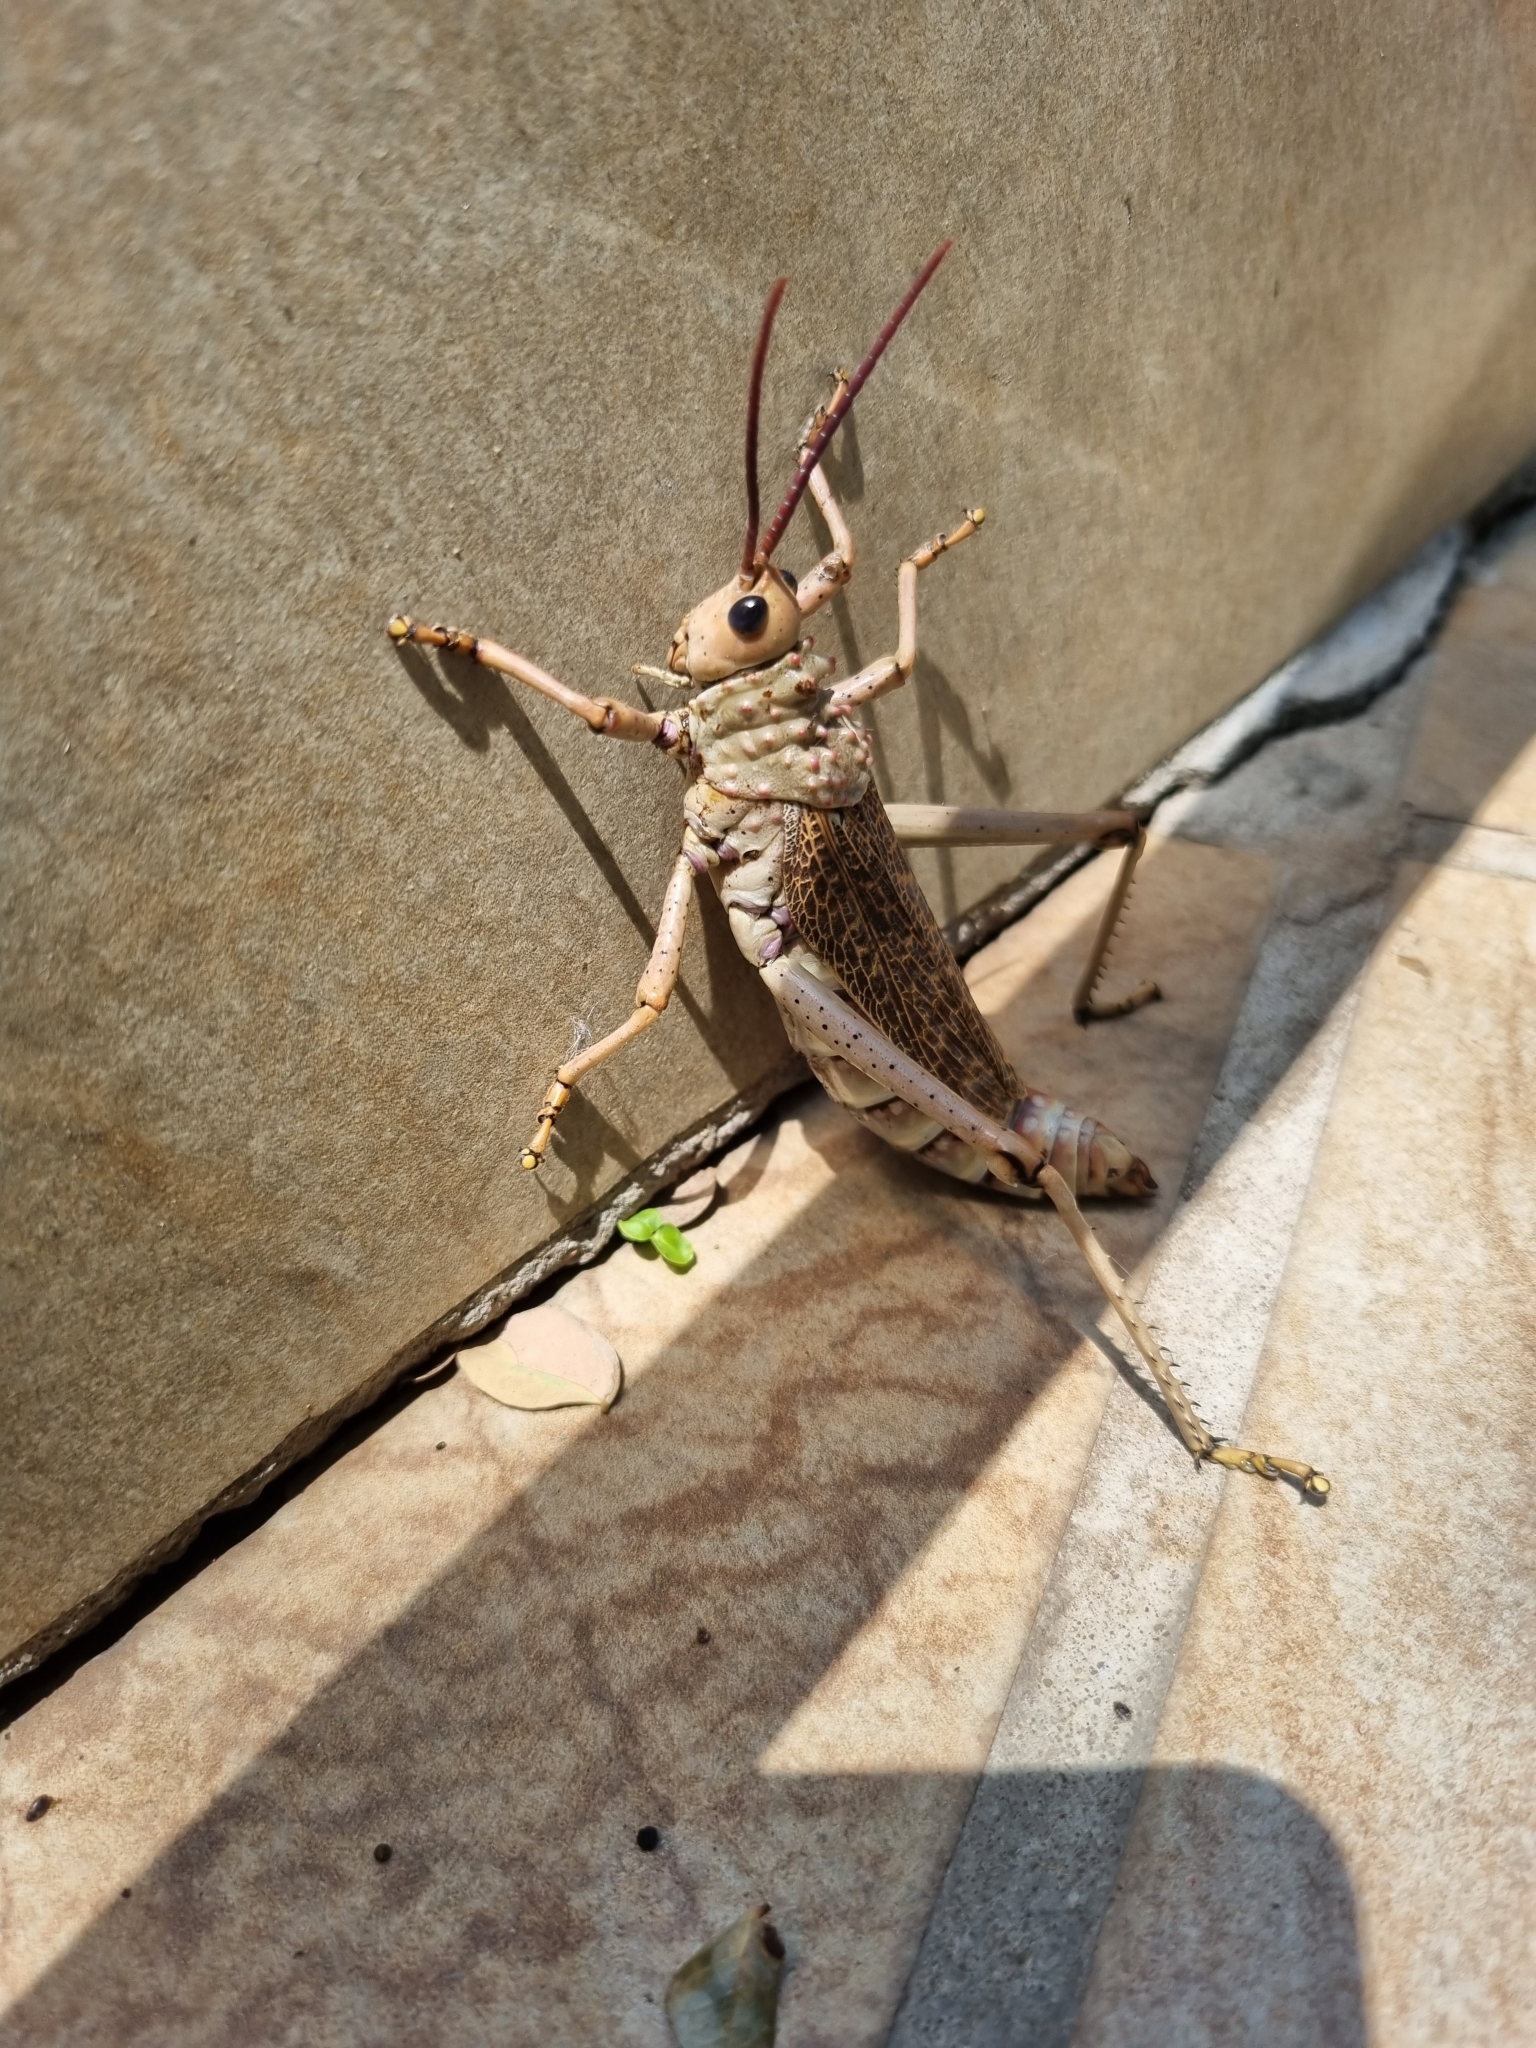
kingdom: Animalia
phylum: Arthropoda
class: Insecta
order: Orthoptera
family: Pyrgomorphidae
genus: Phymateus
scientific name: Phymateus leprosus
